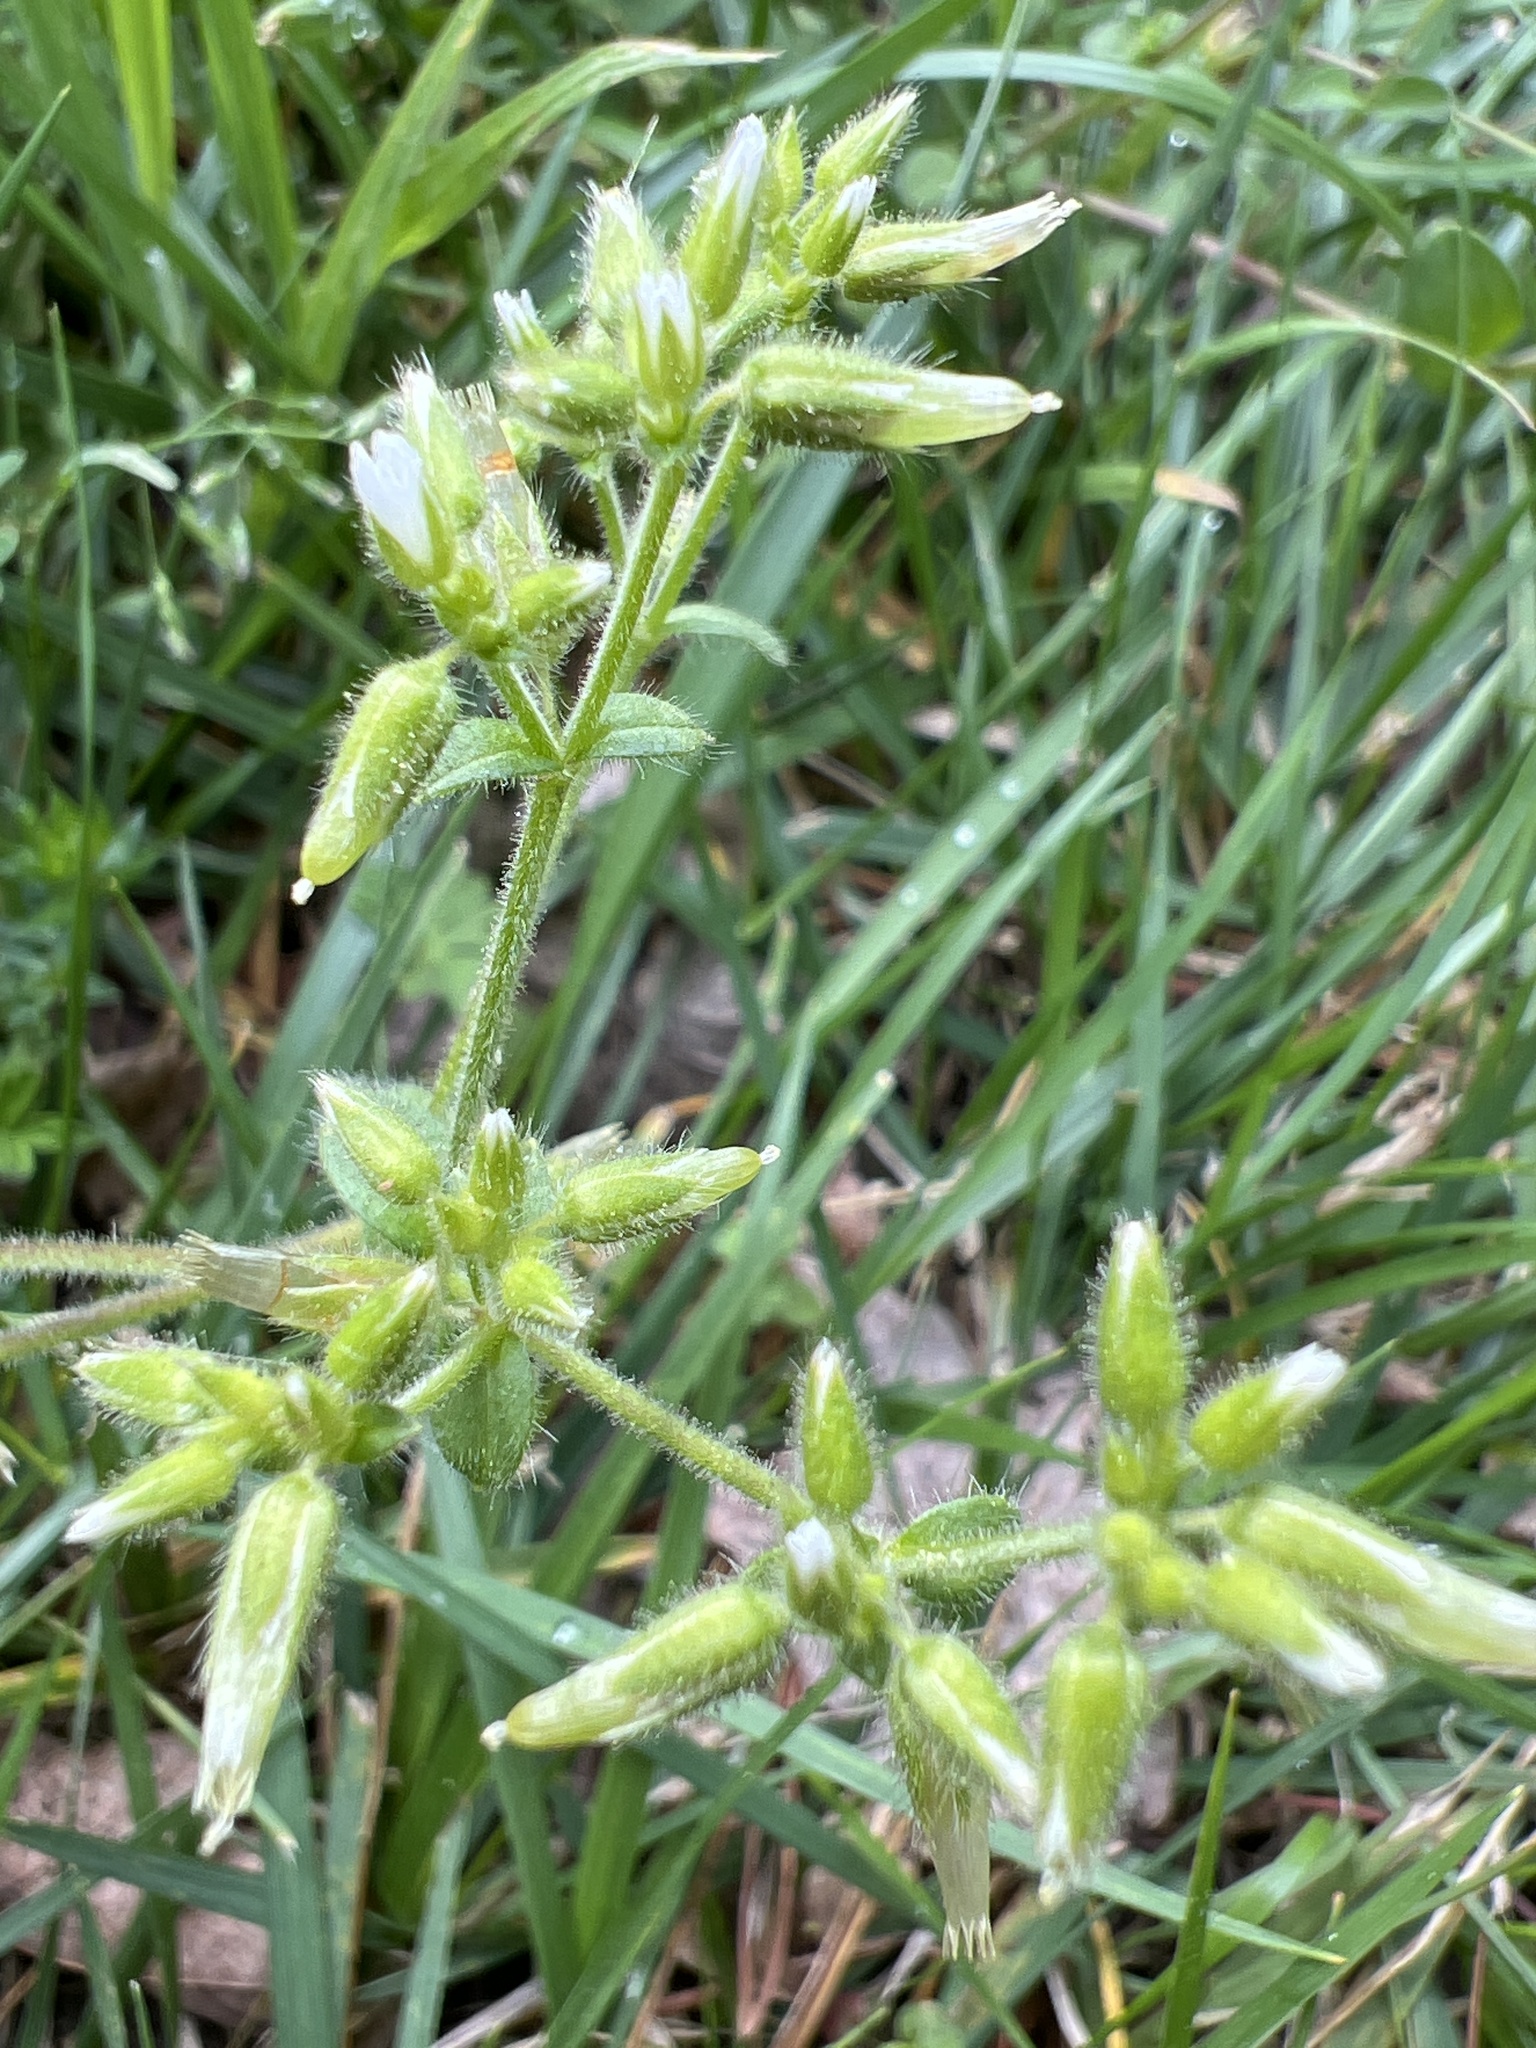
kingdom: Plantae
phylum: Tracheophyta
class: Magnoliopsida
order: Caryophyllales
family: Caryophyllaceae
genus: Cerastium
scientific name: Cerastium glomeratum
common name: Sticky chickweed
